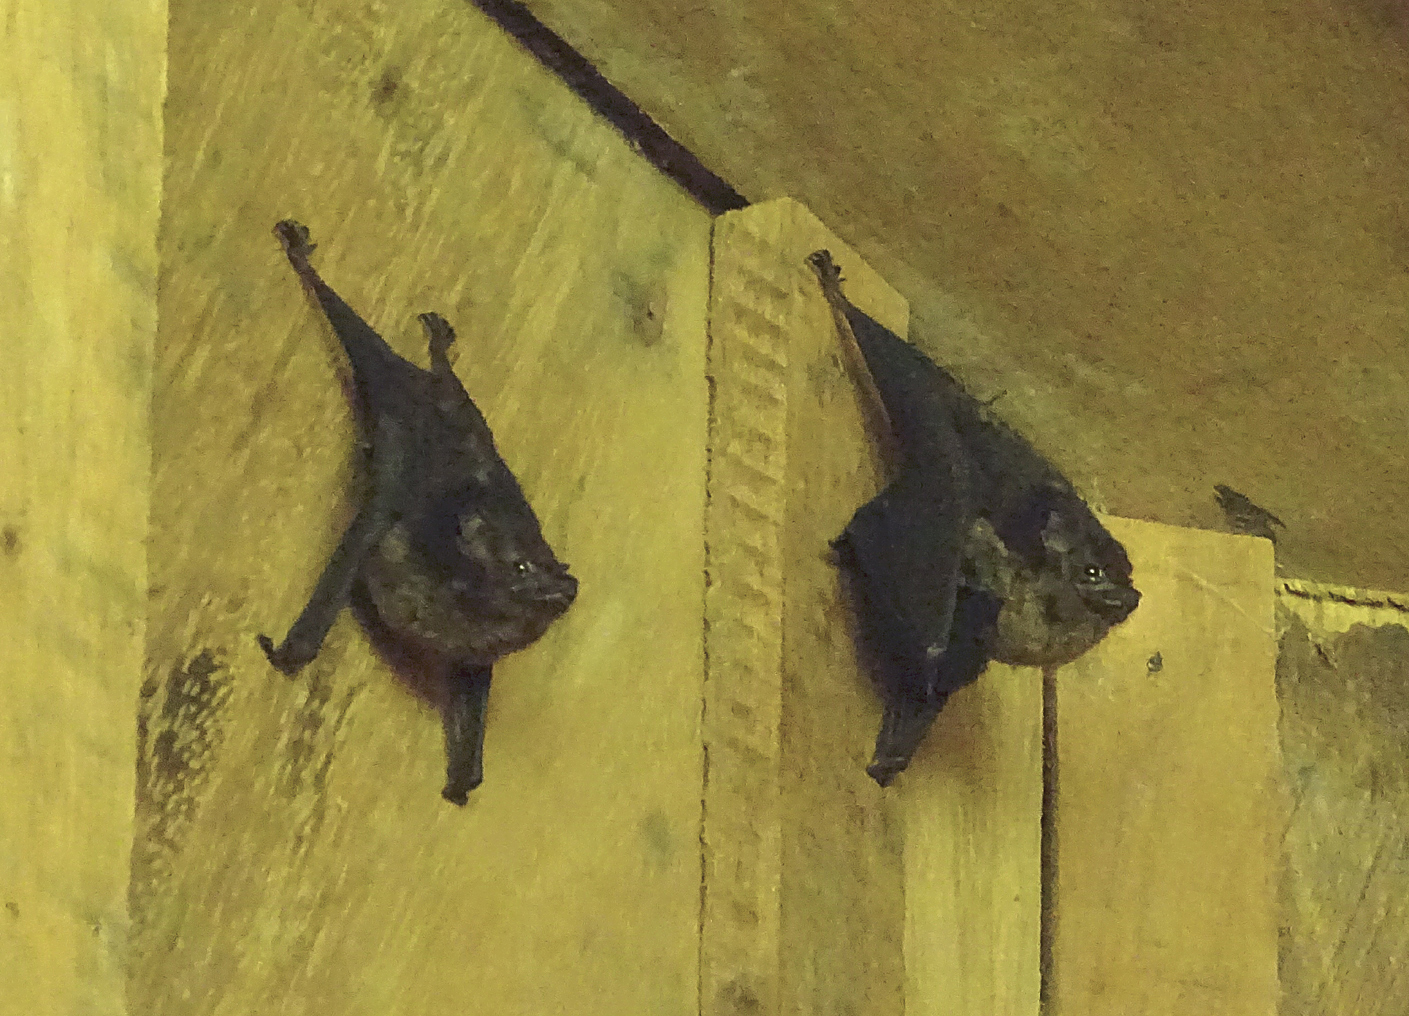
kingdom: Animalia
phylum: Chordata
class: Mammalia
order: Chiroptera
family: Emballonuridae
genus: Saccopteryx
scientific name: Saccopteryx bilineata
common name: Greater sac-winged bat
